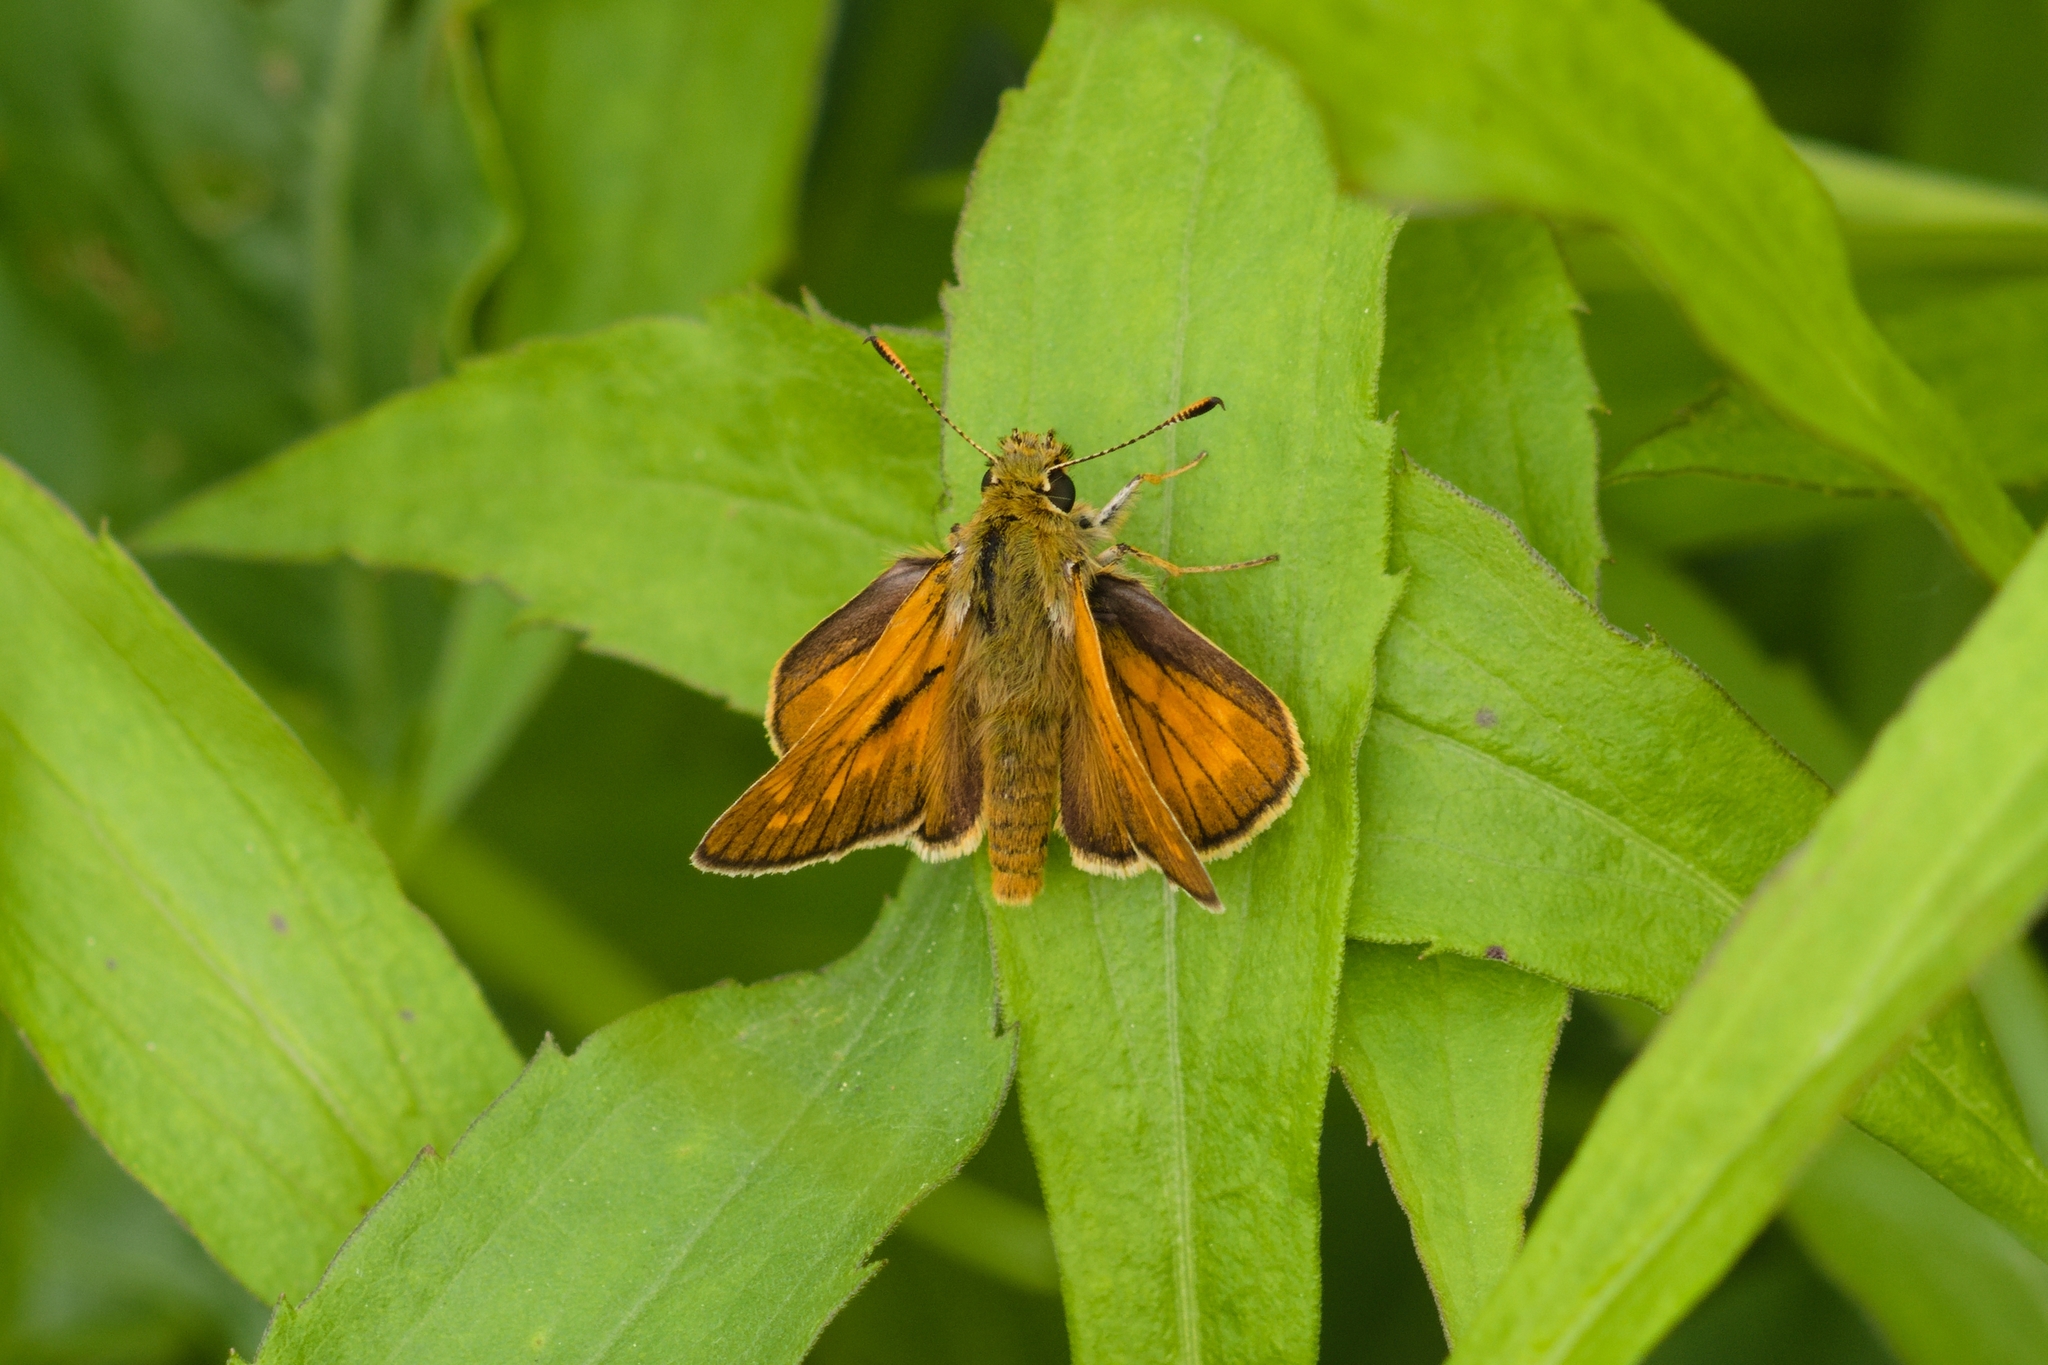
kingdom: Animalia
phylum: Arthropoda
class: Insecta
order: Lepidoptera
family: Hesperiidae
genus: Ochlodes
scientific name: Ochlodes venata
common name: Large skipper
